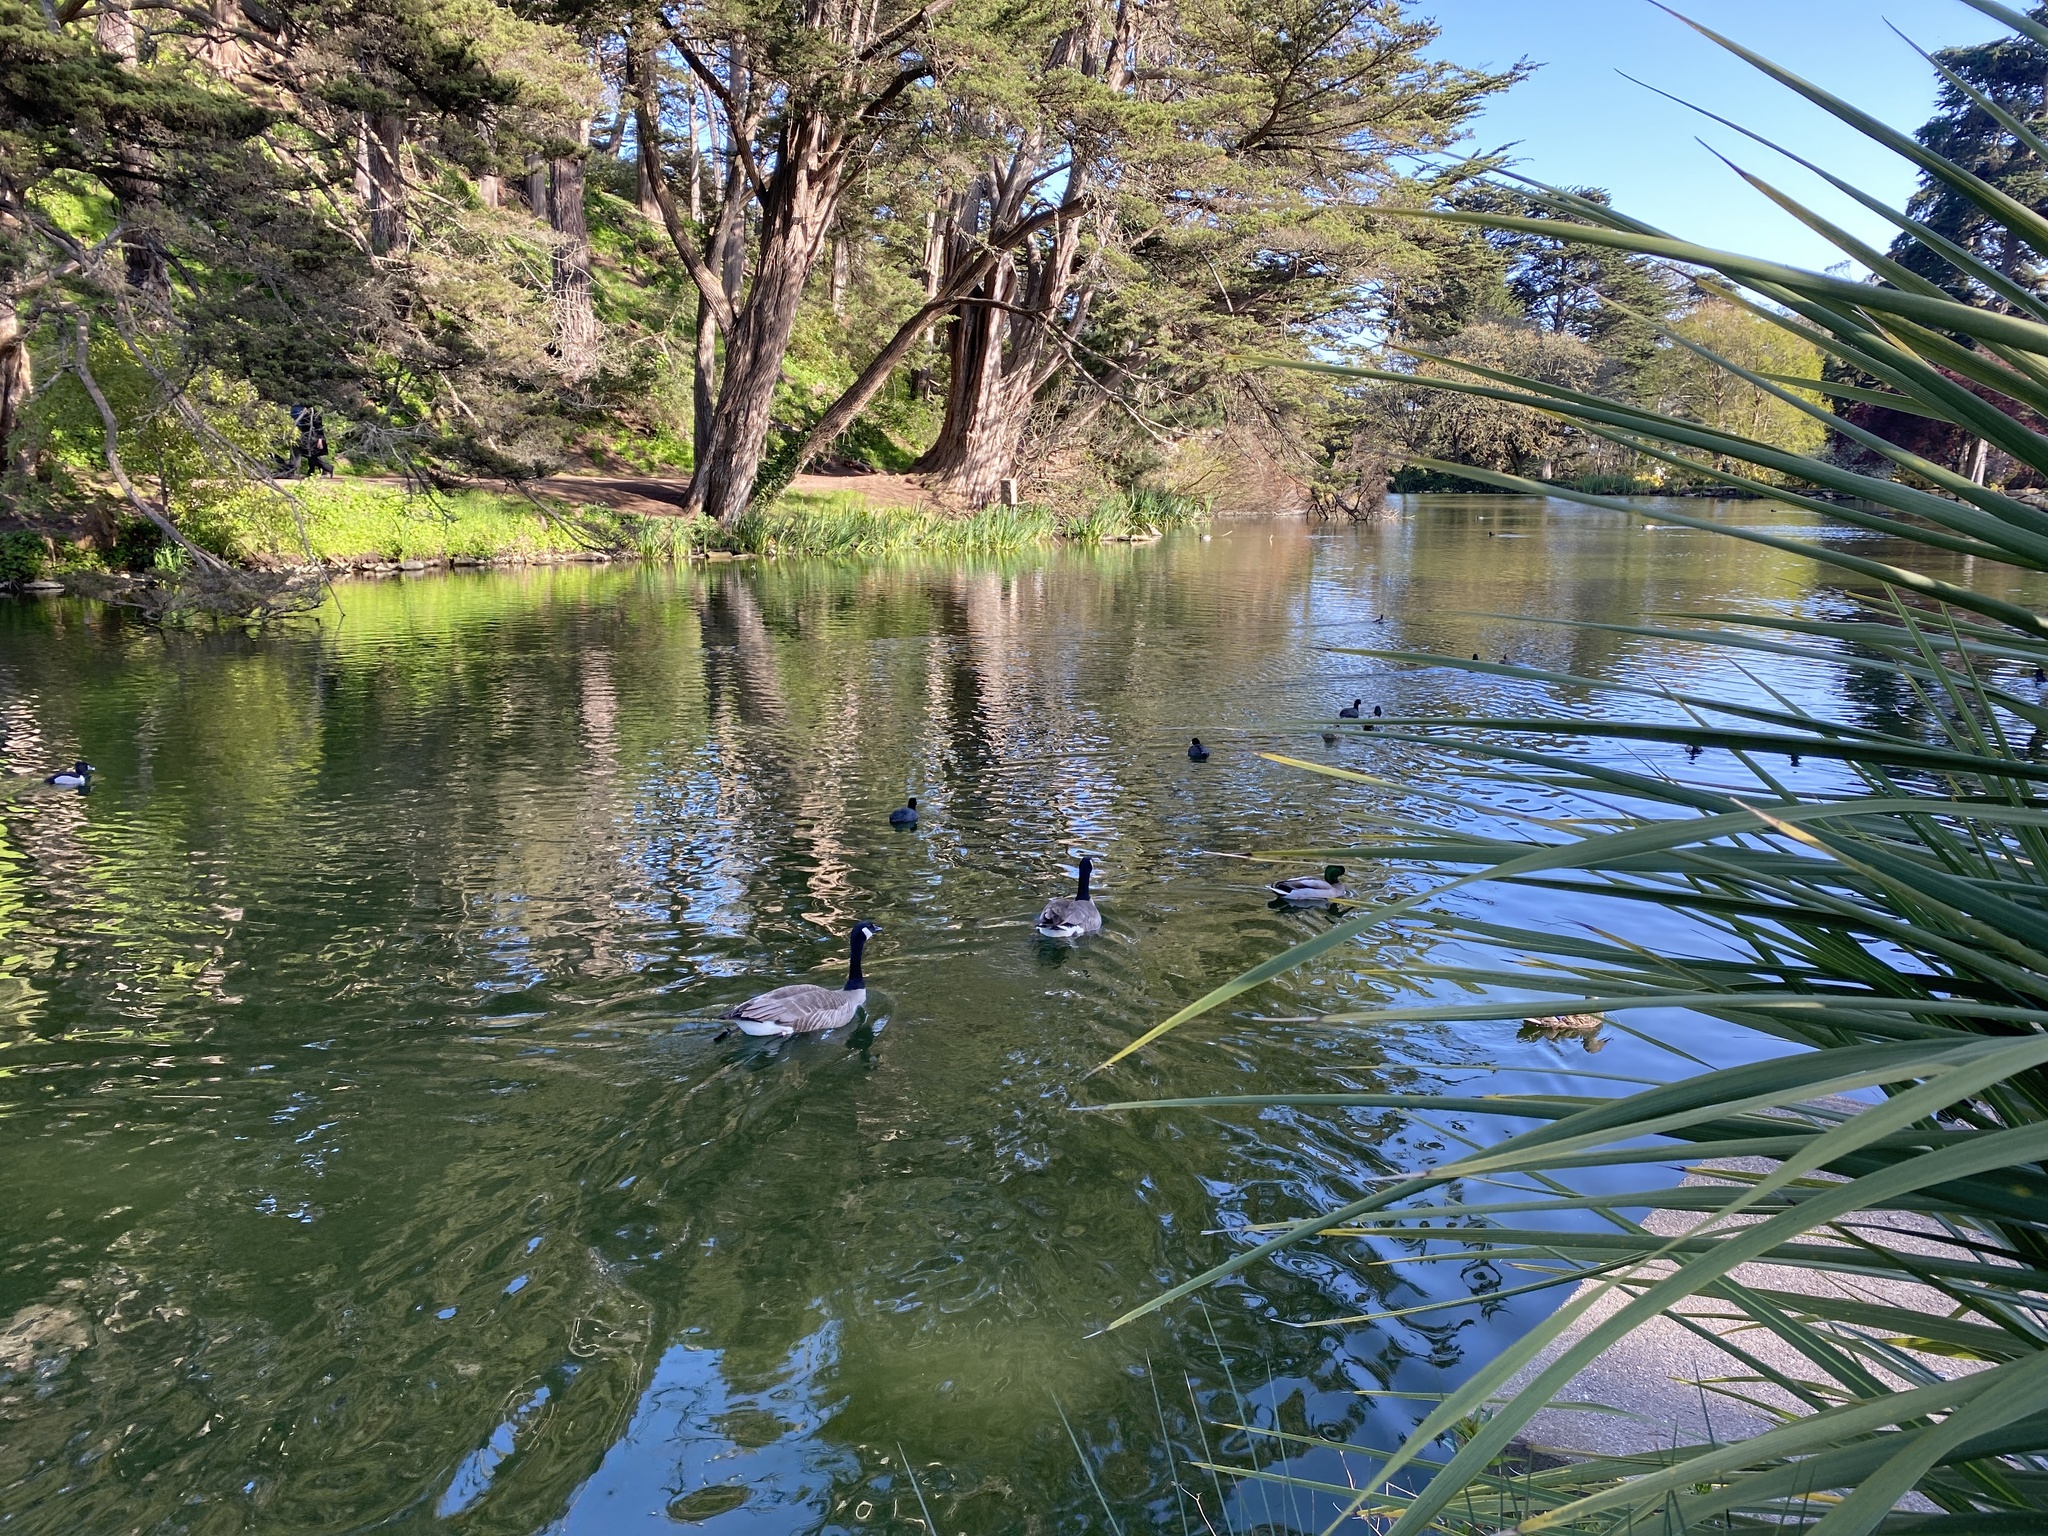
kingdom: Animalia
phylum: Chordata
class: Aves
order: Anseriformes
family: Anatidae
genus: Branta
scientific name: Branta canadensis
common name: Canada goose
